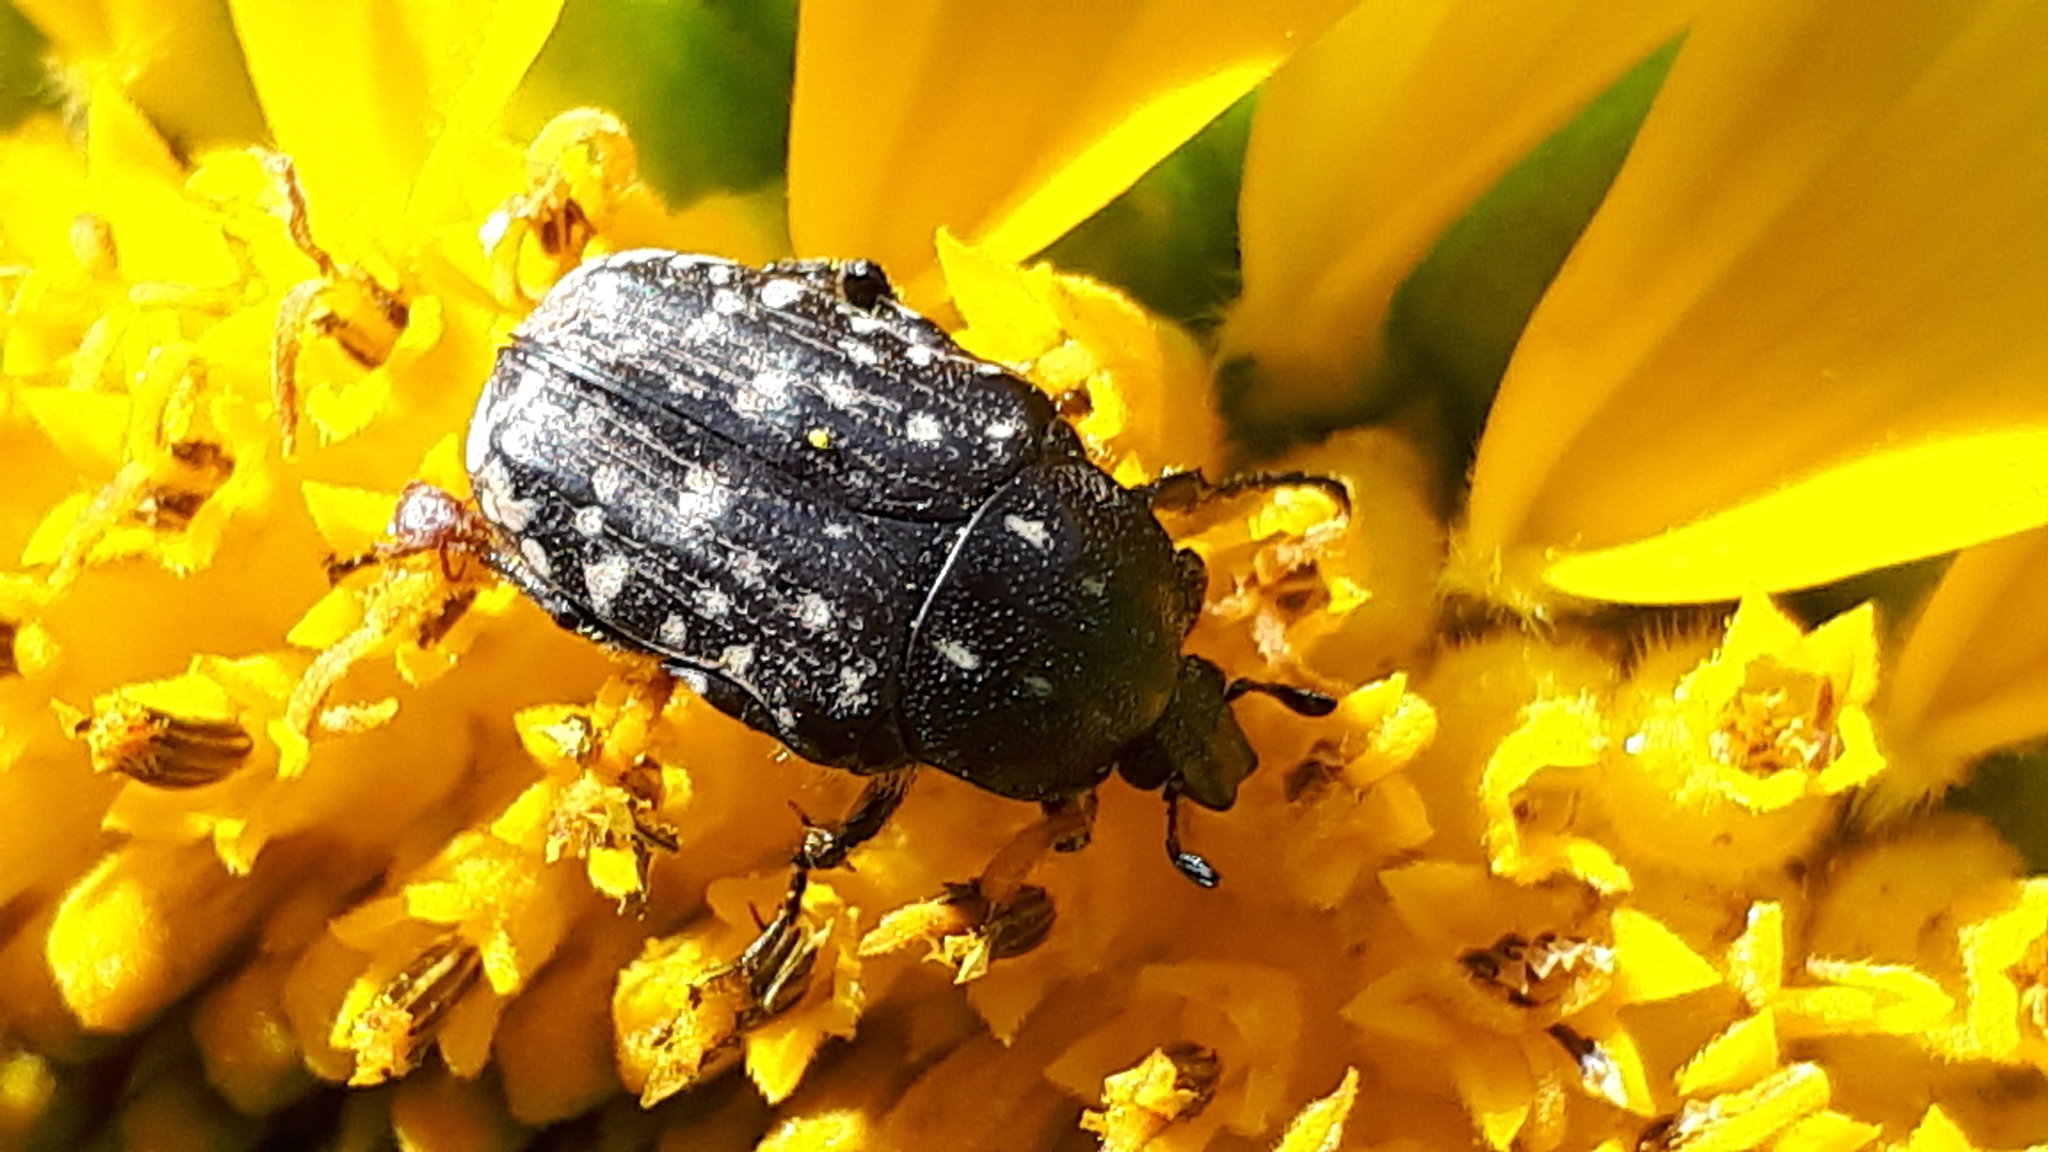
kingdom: Animalia
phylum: Arthropoda
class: Insecta
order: Coleoptera
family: Scarabaeidae
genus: Oxythyrea
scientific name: Oxythyrea funesta
